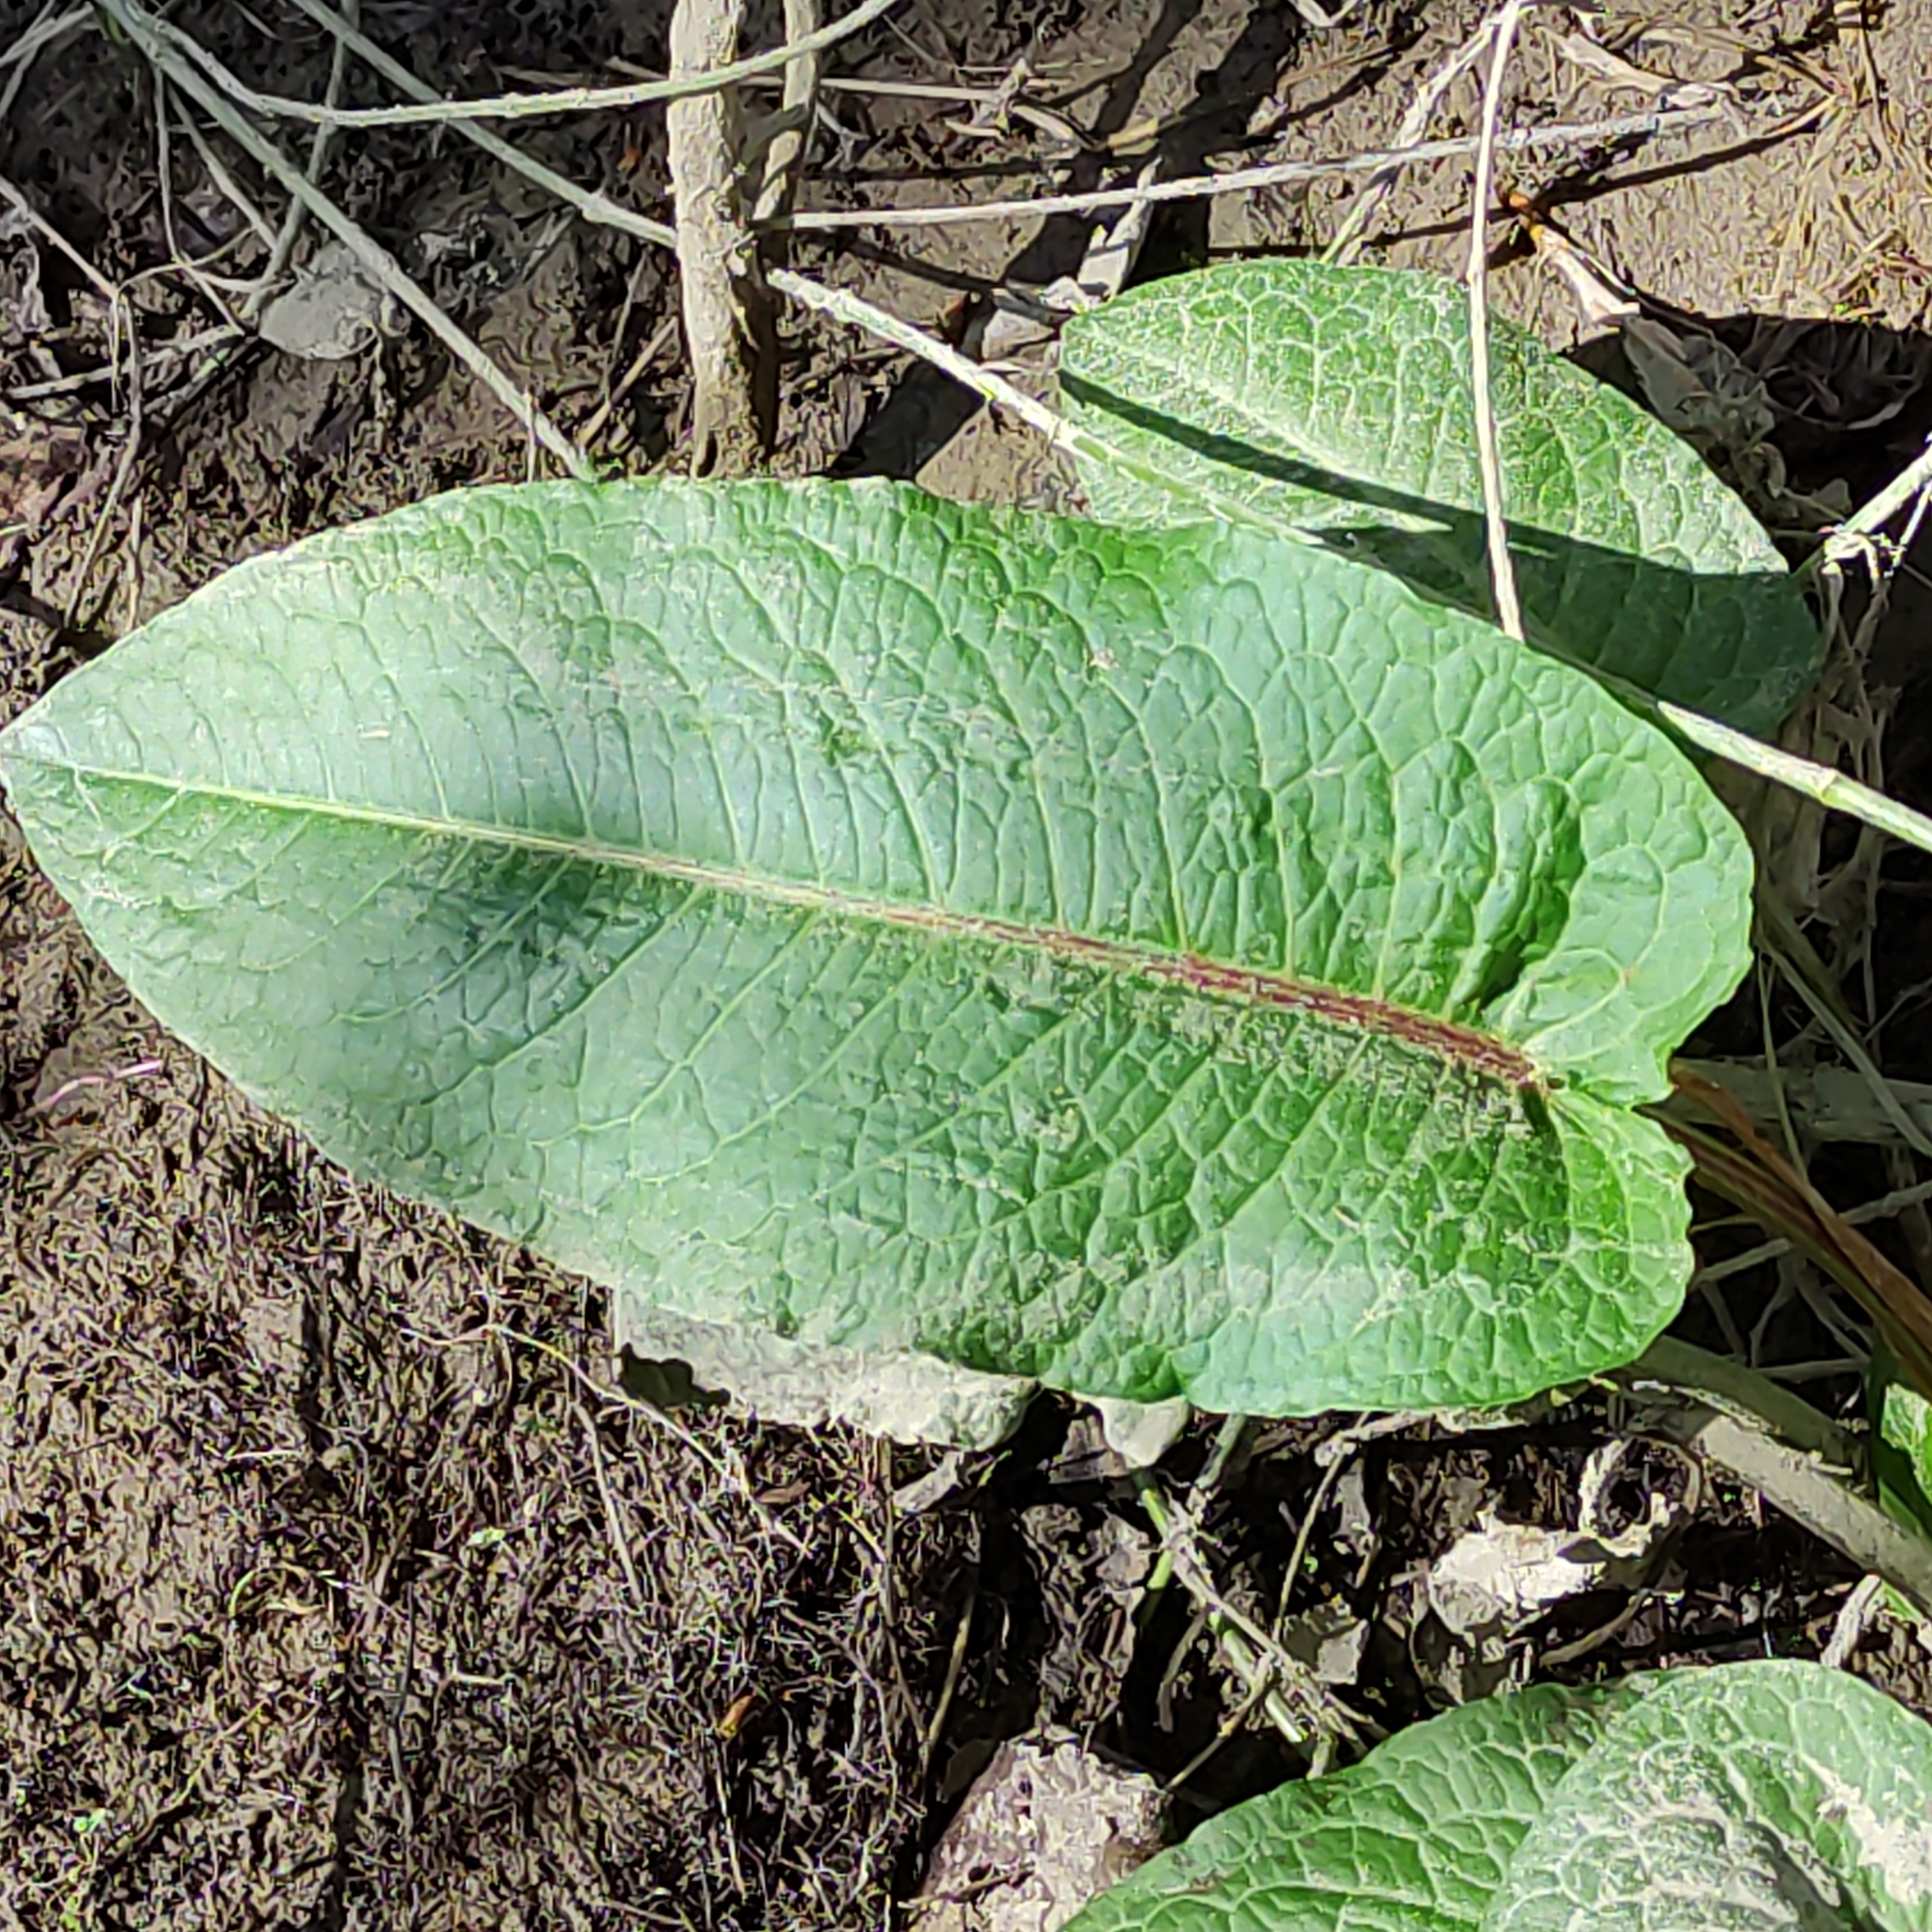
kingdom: Plantae
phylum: Tracheophyta
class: Magnoliopsida
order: Caryophyllales
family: Polygonaceae
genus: Rumex
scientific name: Rumex obtusifolius
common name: Bitter dock
